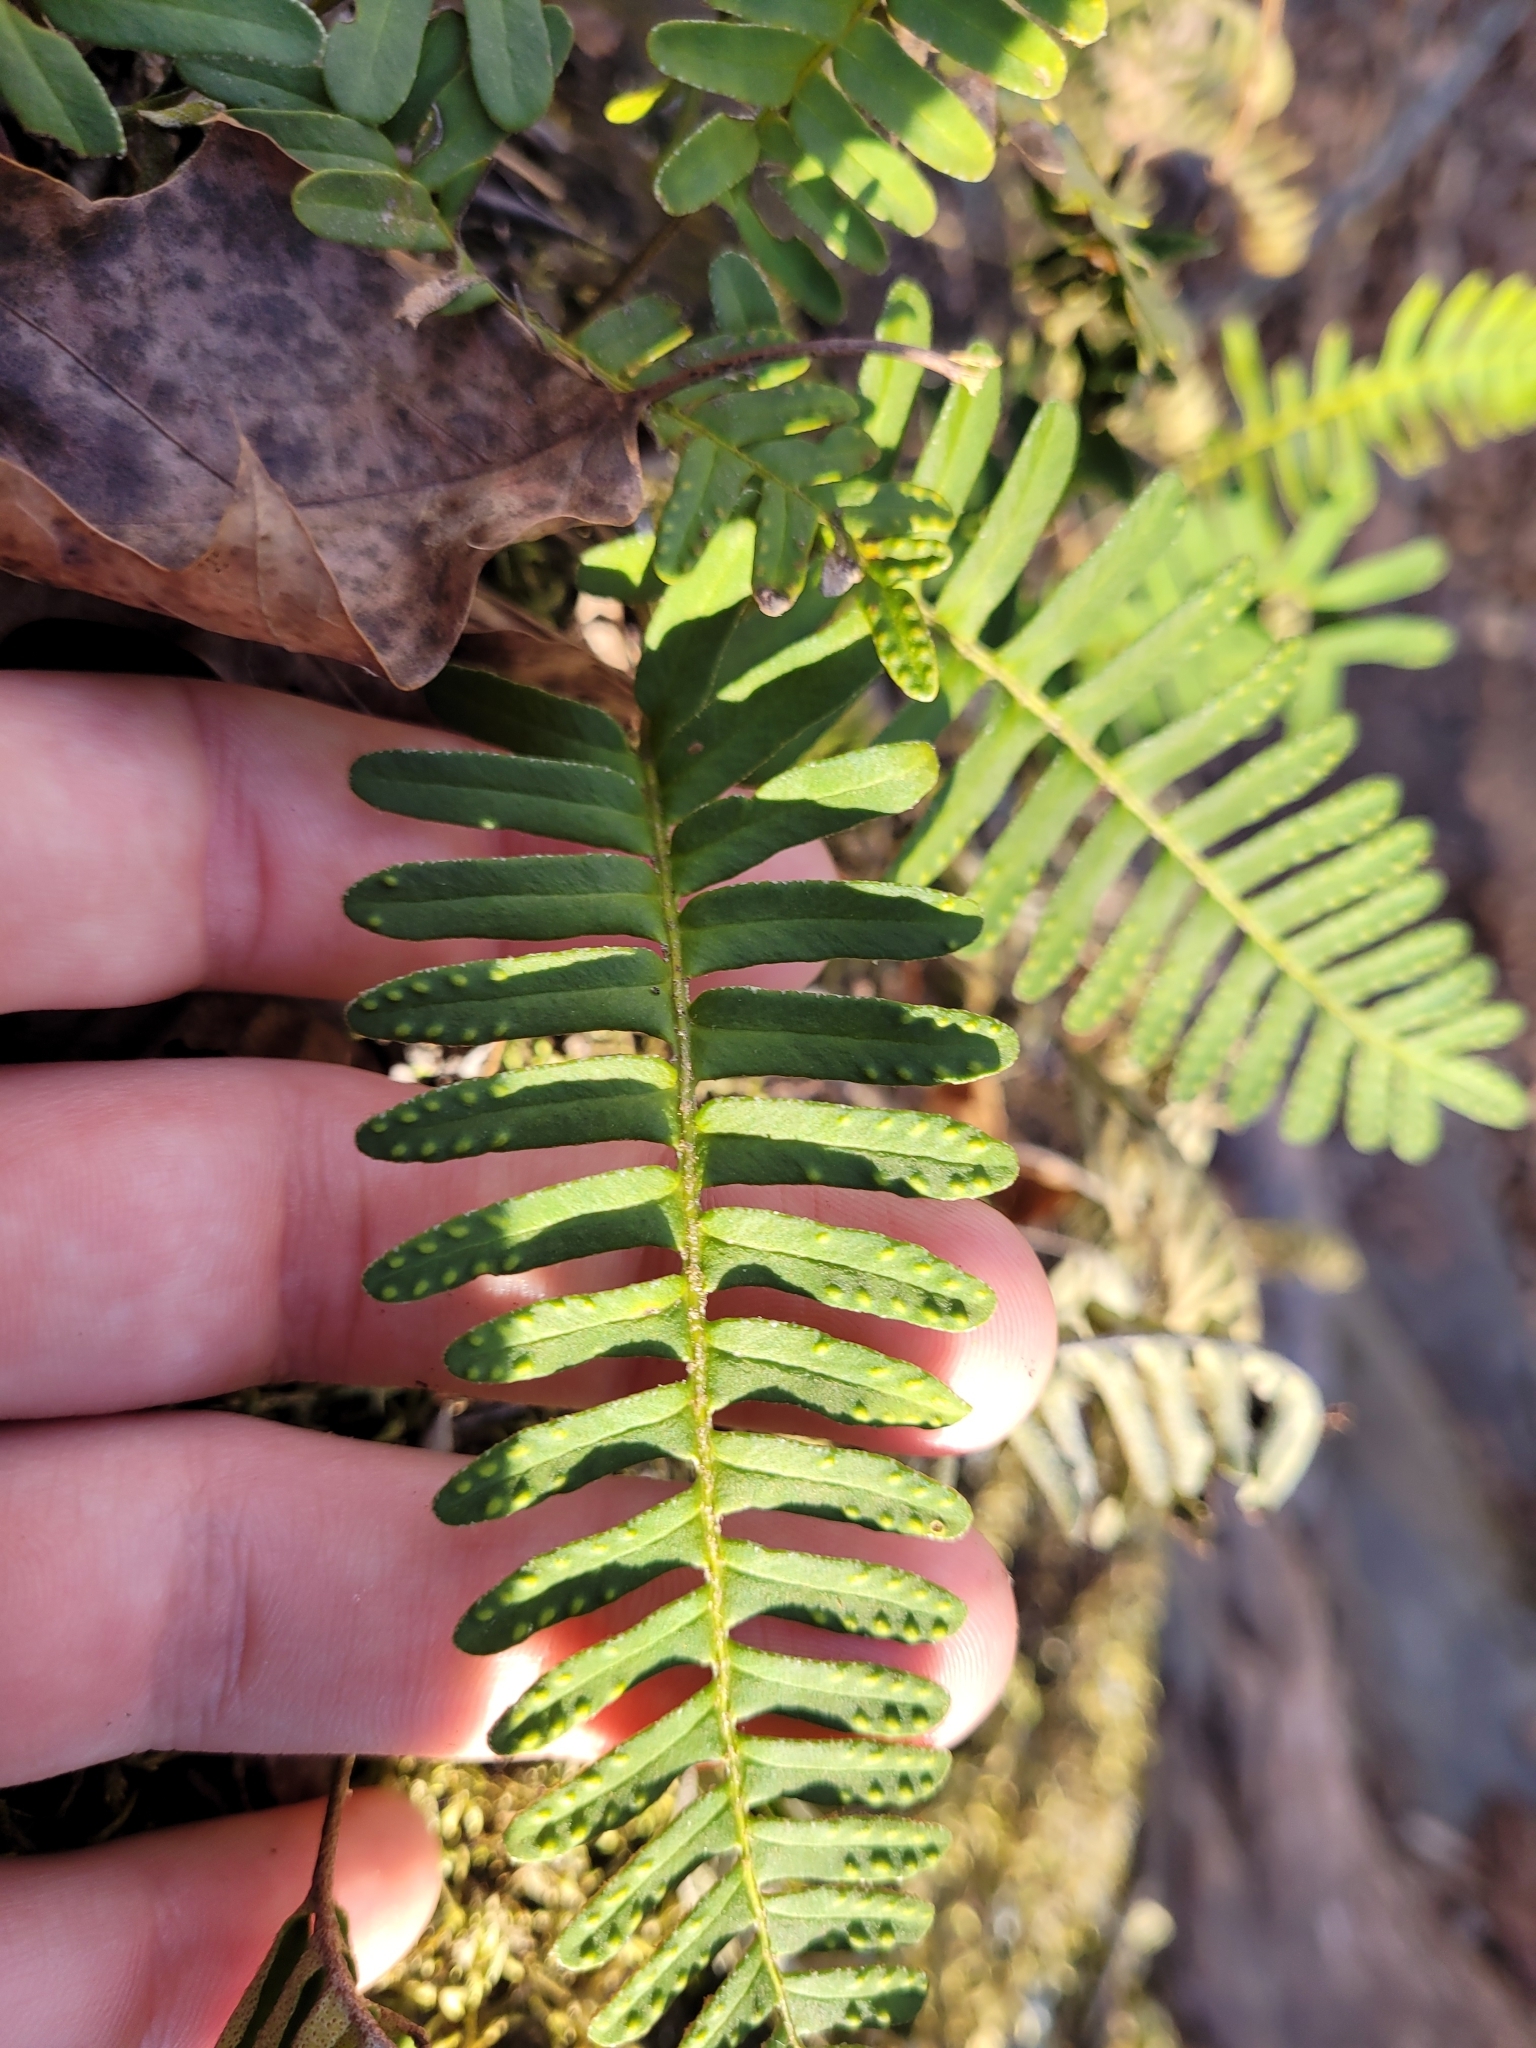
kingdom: Plantae
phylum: Tracheophyta
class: Polypodiopsida
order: Polypodiales
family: Polypodiaceae
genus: Pleopeltis
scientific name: Pleopeltis michauxiana
